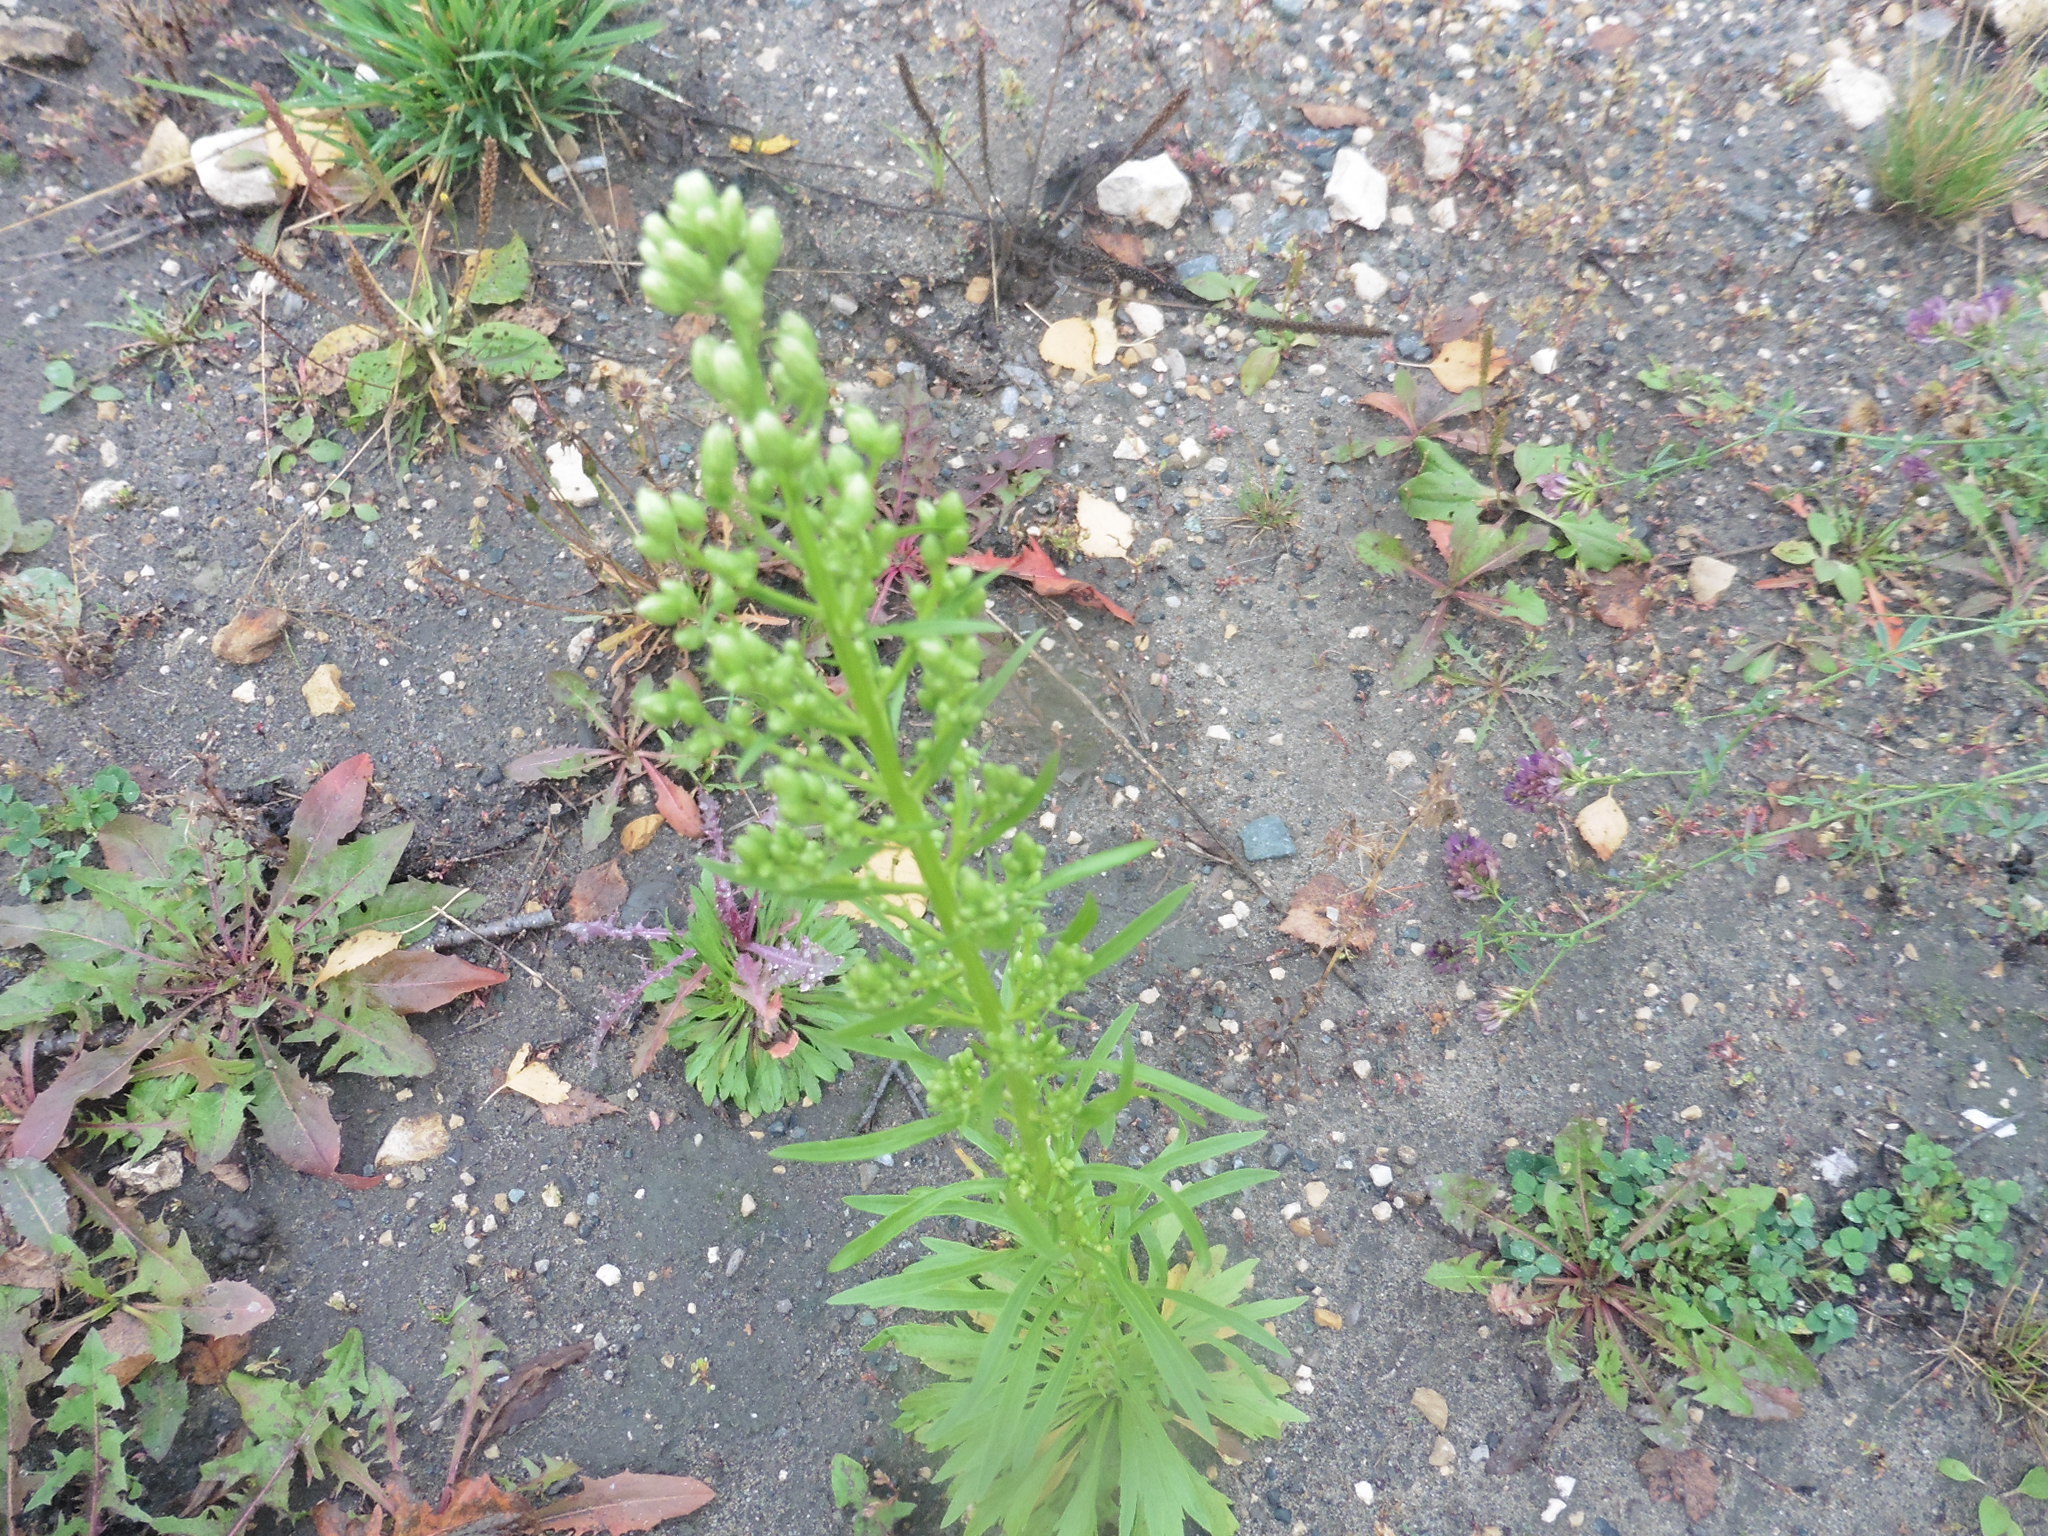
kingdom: Plantae
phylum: Tracheophyta
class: Magnoliopsida
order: Asterales
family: Asteraceae
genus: Erigeron
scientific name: Erigeron canadensis
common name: Canadian fleabane
